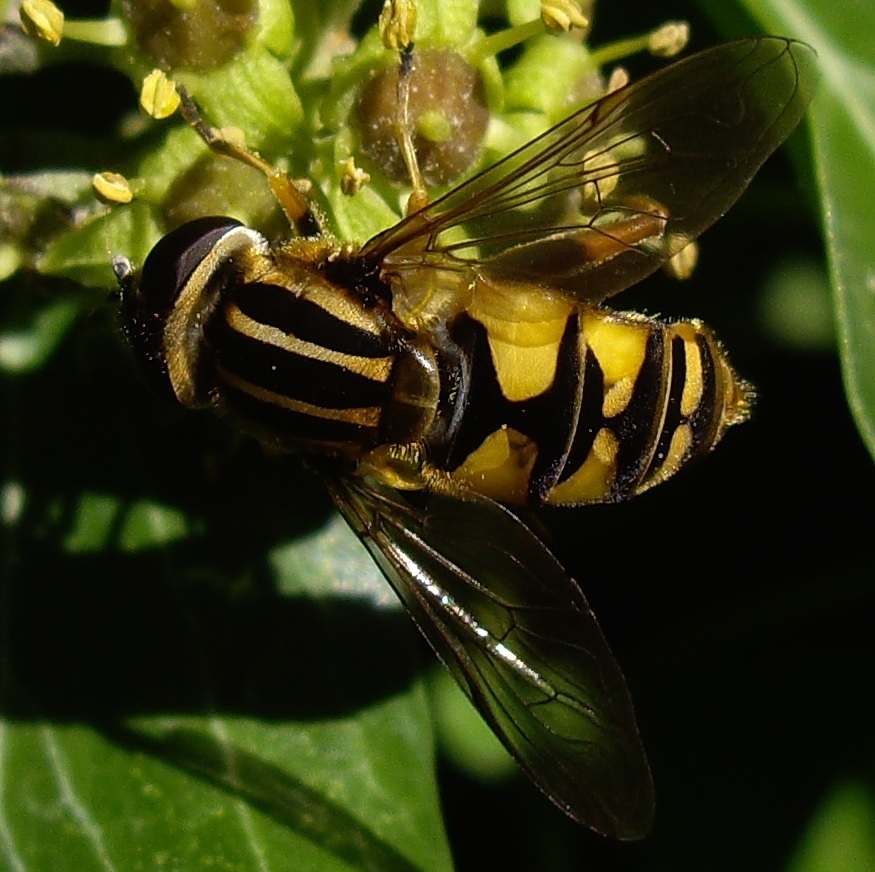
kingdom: Animalia
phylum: Arthropoda
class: Insecta
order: Diptera
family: Syrphidae
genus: Helophilus
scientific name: Helophilus pendulus
